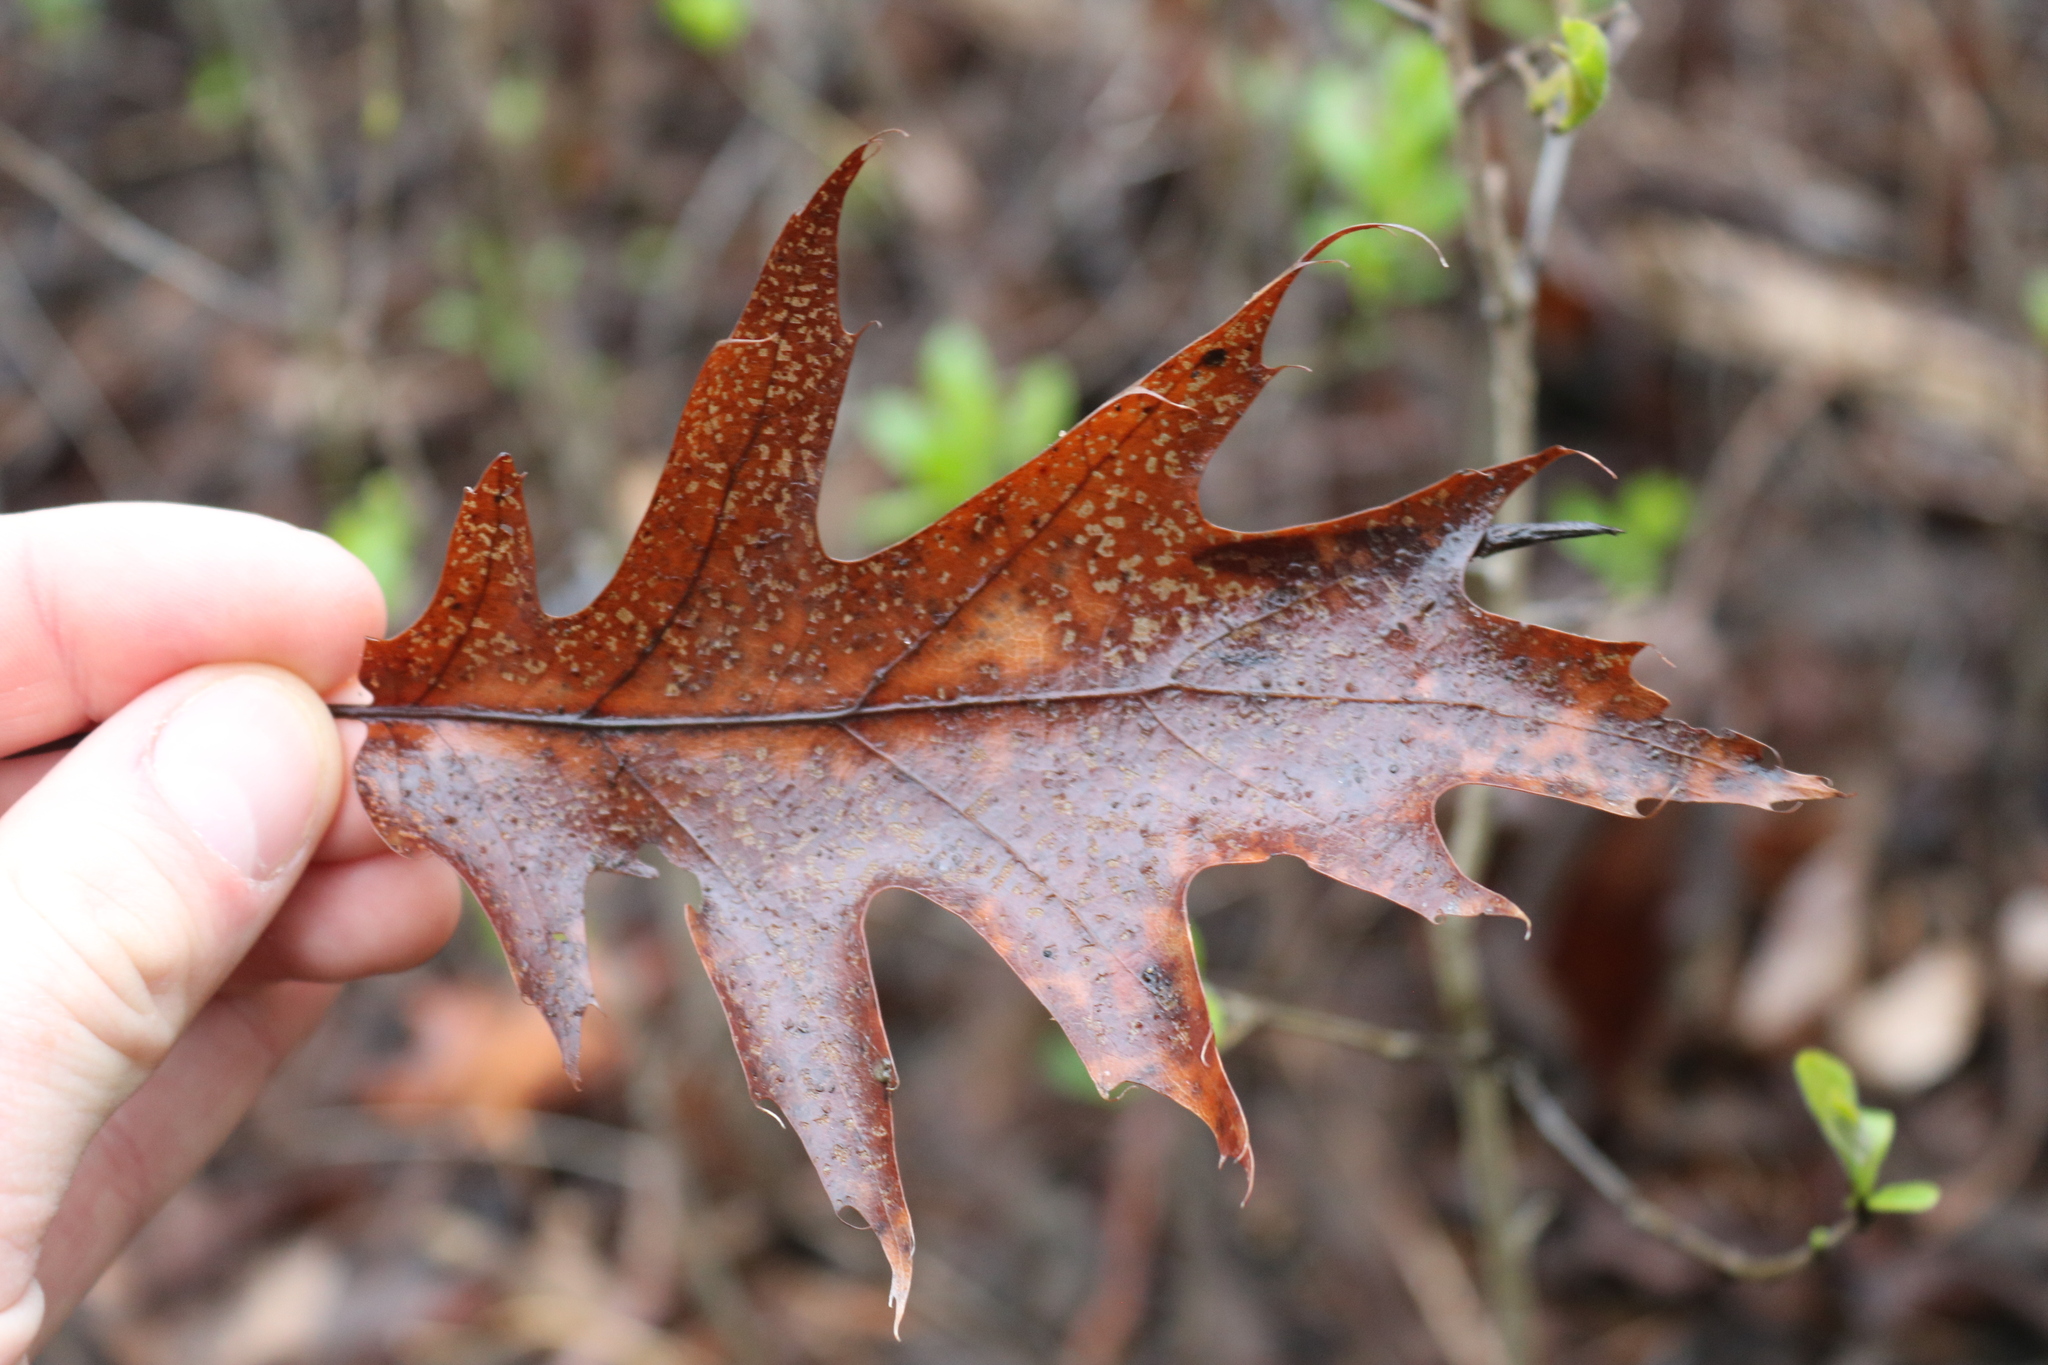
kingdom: Plantae
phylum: Tracheophyta
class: Magnoliopsida
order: Fagales
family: Fagaceae
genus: Quercus
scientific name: Quercus rubra
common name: Red oak
